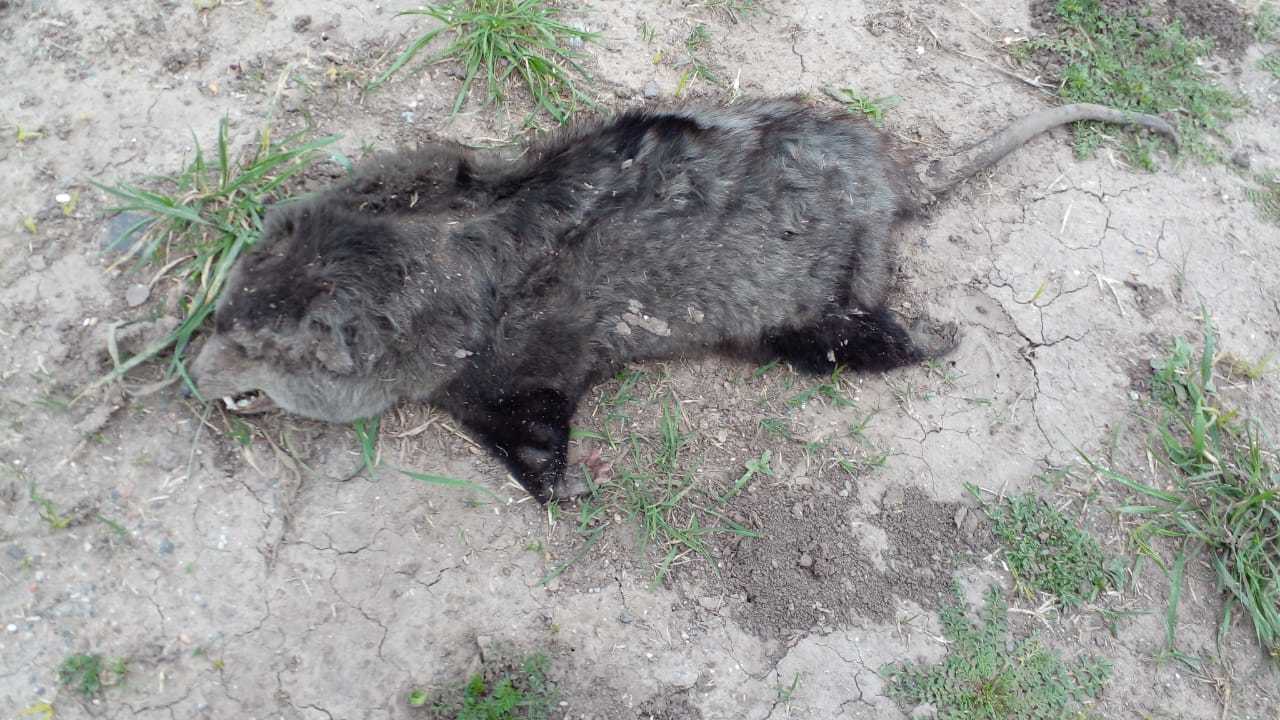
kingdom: Animalia
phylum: Chordata
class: Mammalia
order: Didelphimorphia
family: Didelphidae
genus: Didelphis
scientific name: Didelphis albiventris
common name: White-eared opossum
